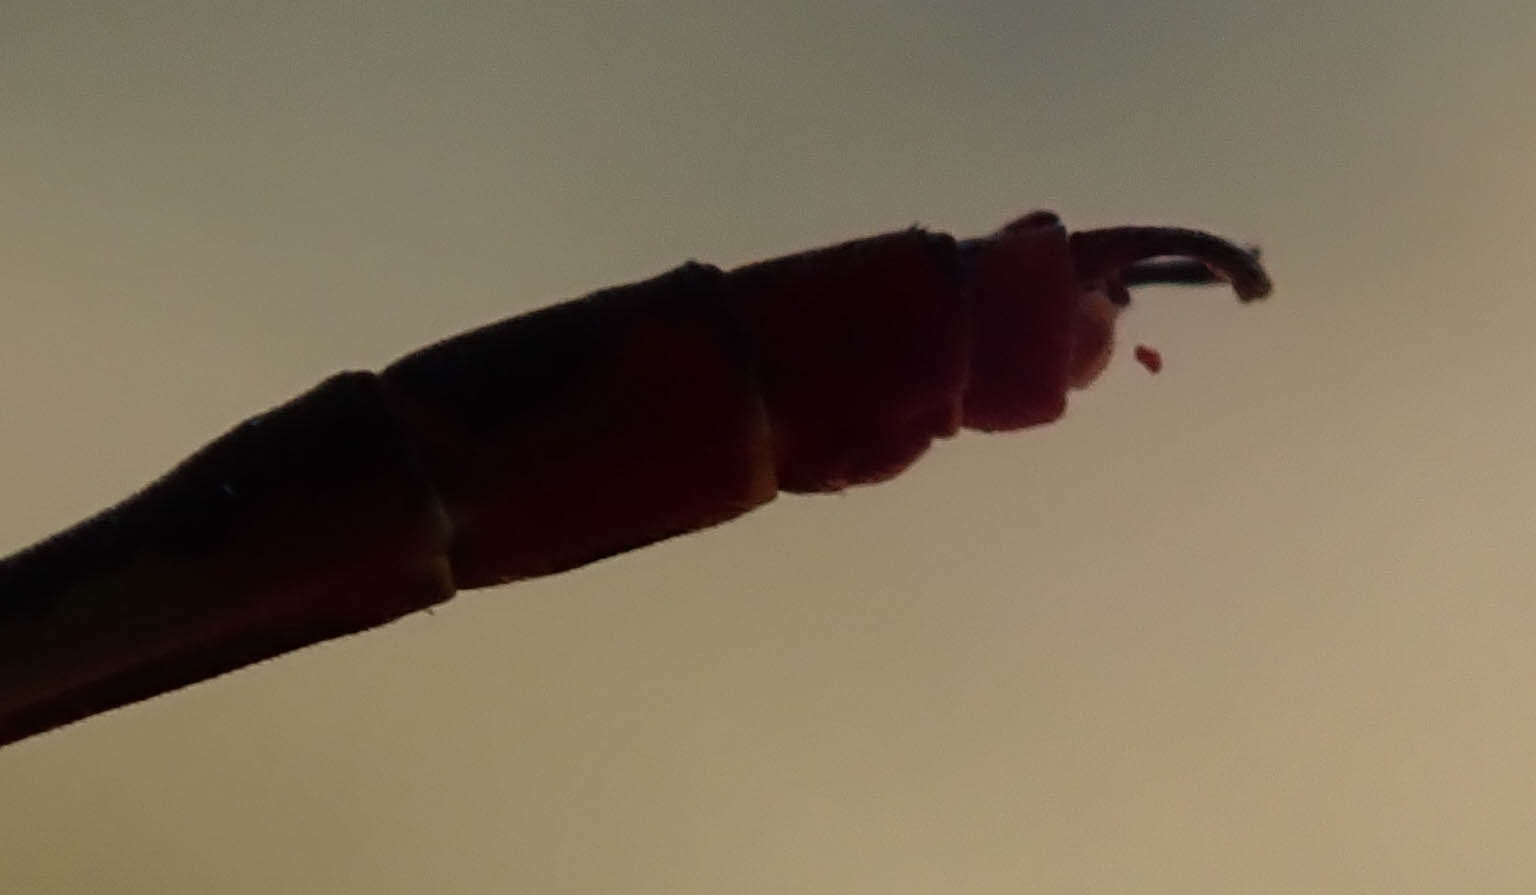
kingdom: Animalia
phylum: Arthropoda
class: Insecta
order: Odonata
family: Coenagrionidae
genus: Agriocnemis
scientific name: Agriocnemis victoria
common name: Lesser pincer-tailed wisp
